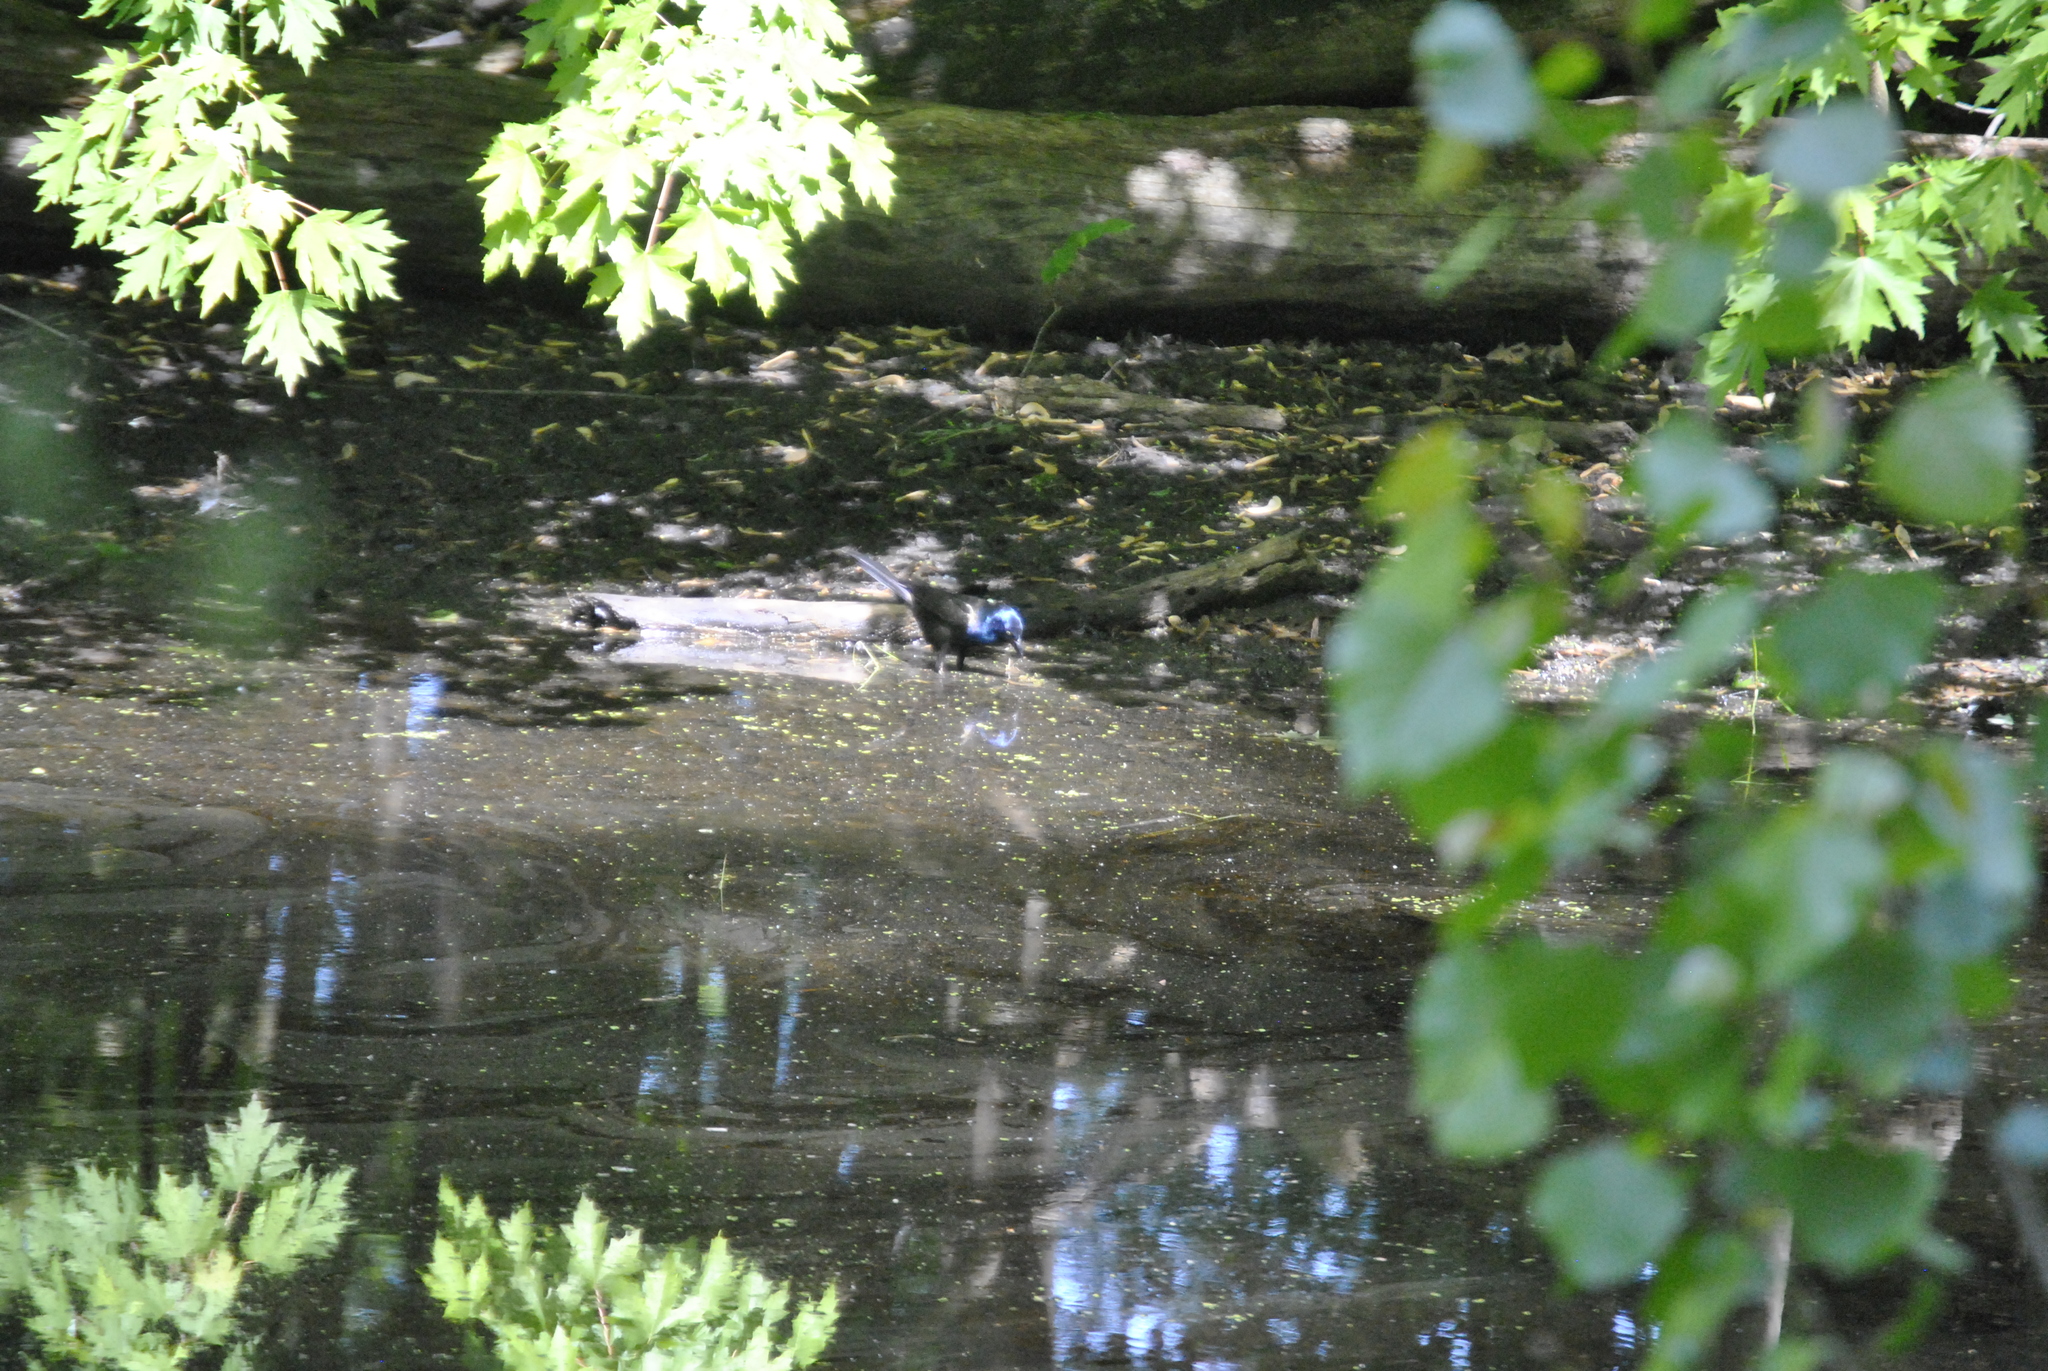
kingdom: Animalia
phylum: Chordata
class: Aves
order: Passeriformes
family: Icteridae
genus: Quiscalus
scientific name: Quiscalus quiscula
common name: Common grackle
